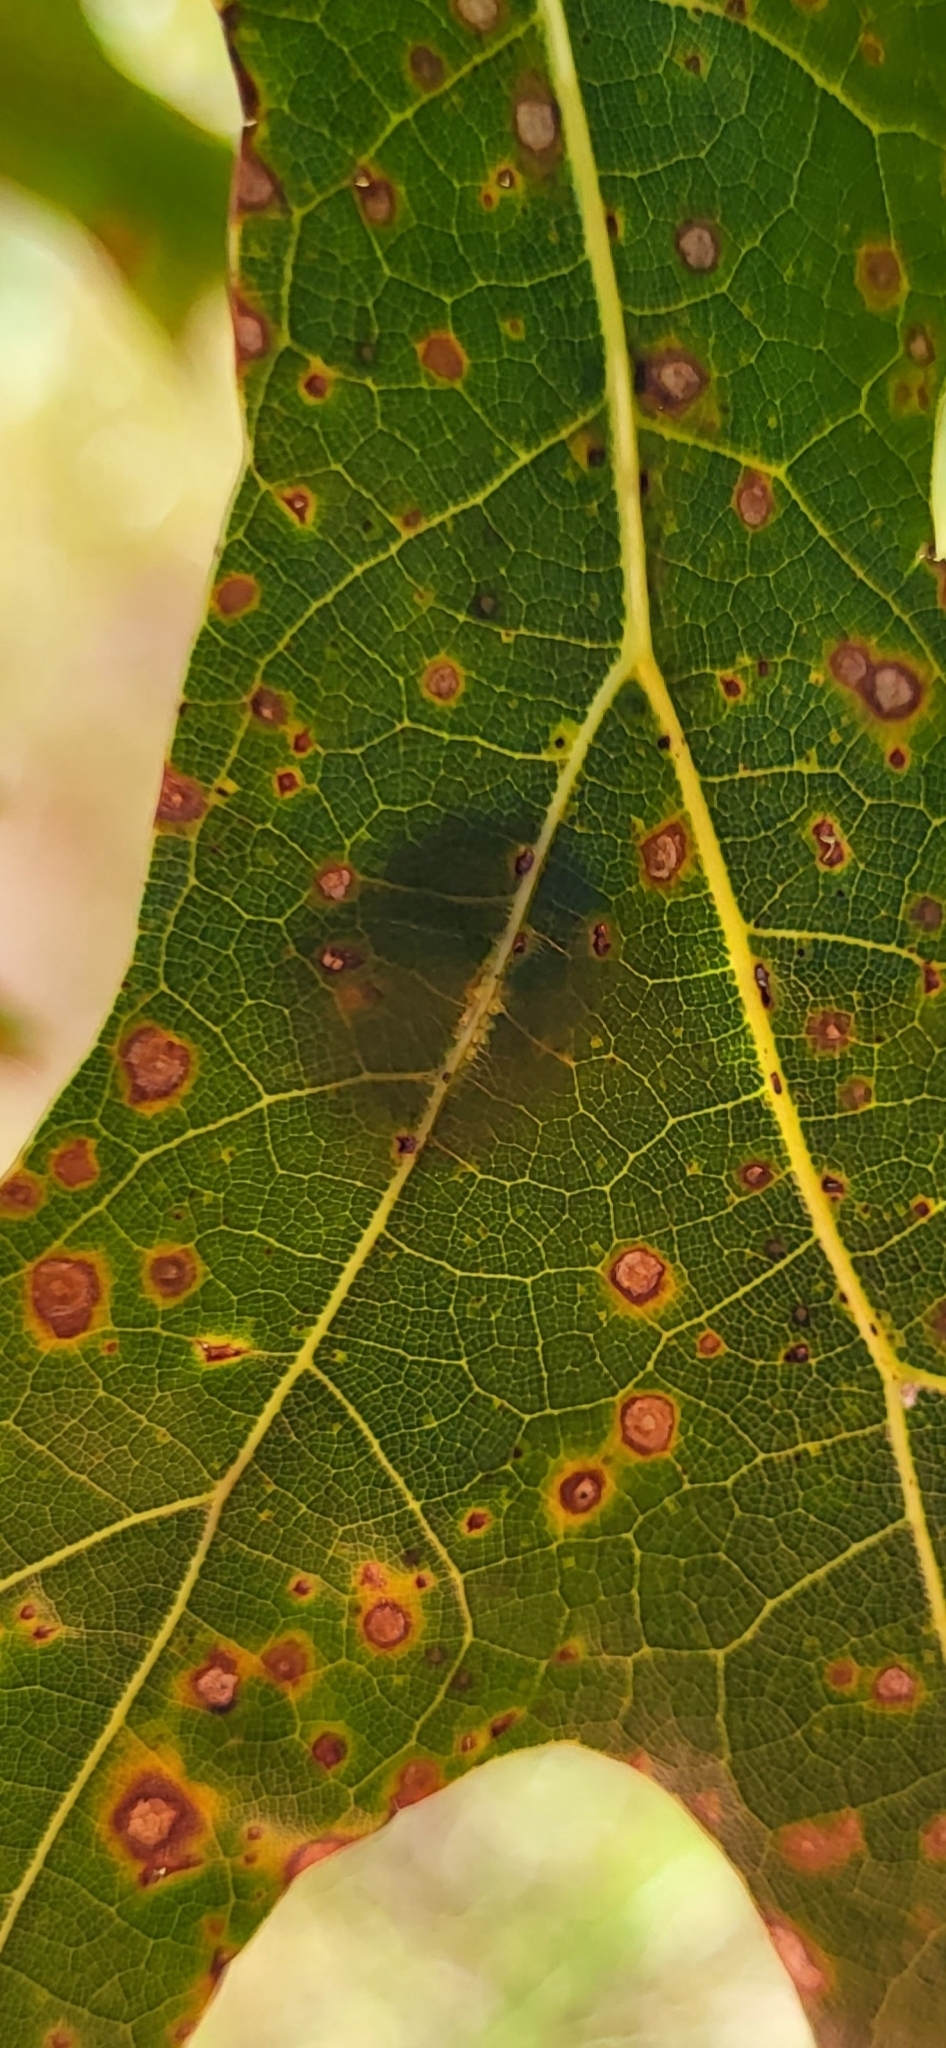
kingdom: Animalia
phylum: Arthropoda
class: Insecta
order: Hymenoptera
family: Cynipidae
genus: Callirhytis
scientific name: Callirhytis
